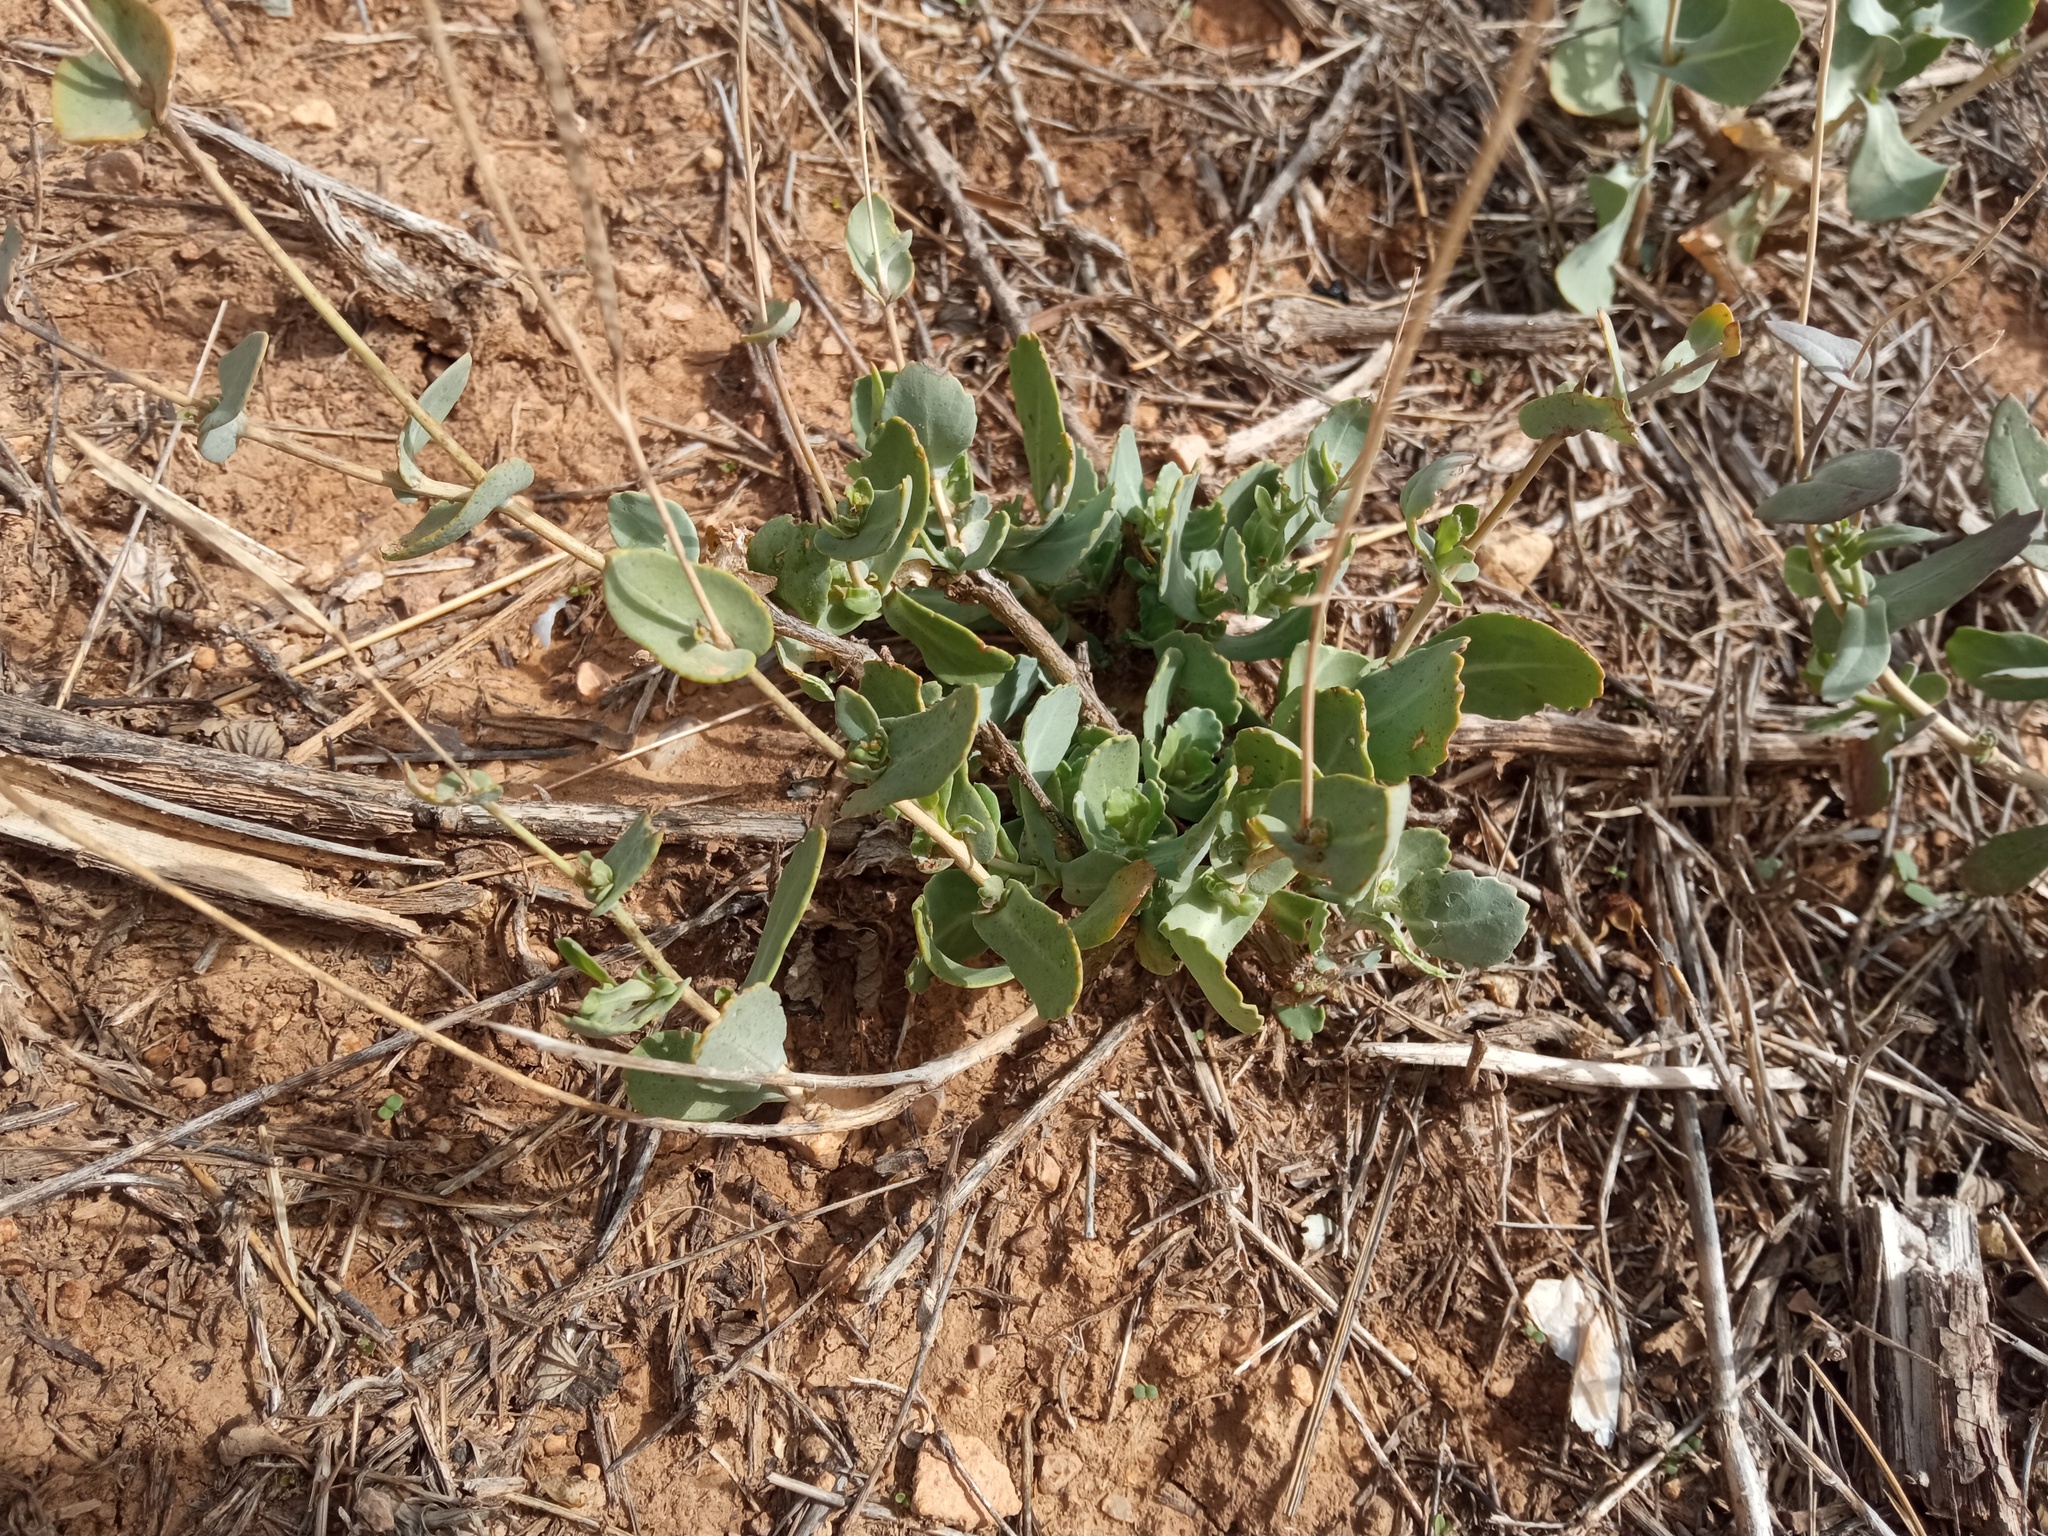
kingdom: Plantae
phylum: Tracheophyta
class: Magnoliopsida
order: Brassicales
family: Brassicaceae
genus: Moricandia
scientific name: Moricandia arvensis
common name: Purple mistress
